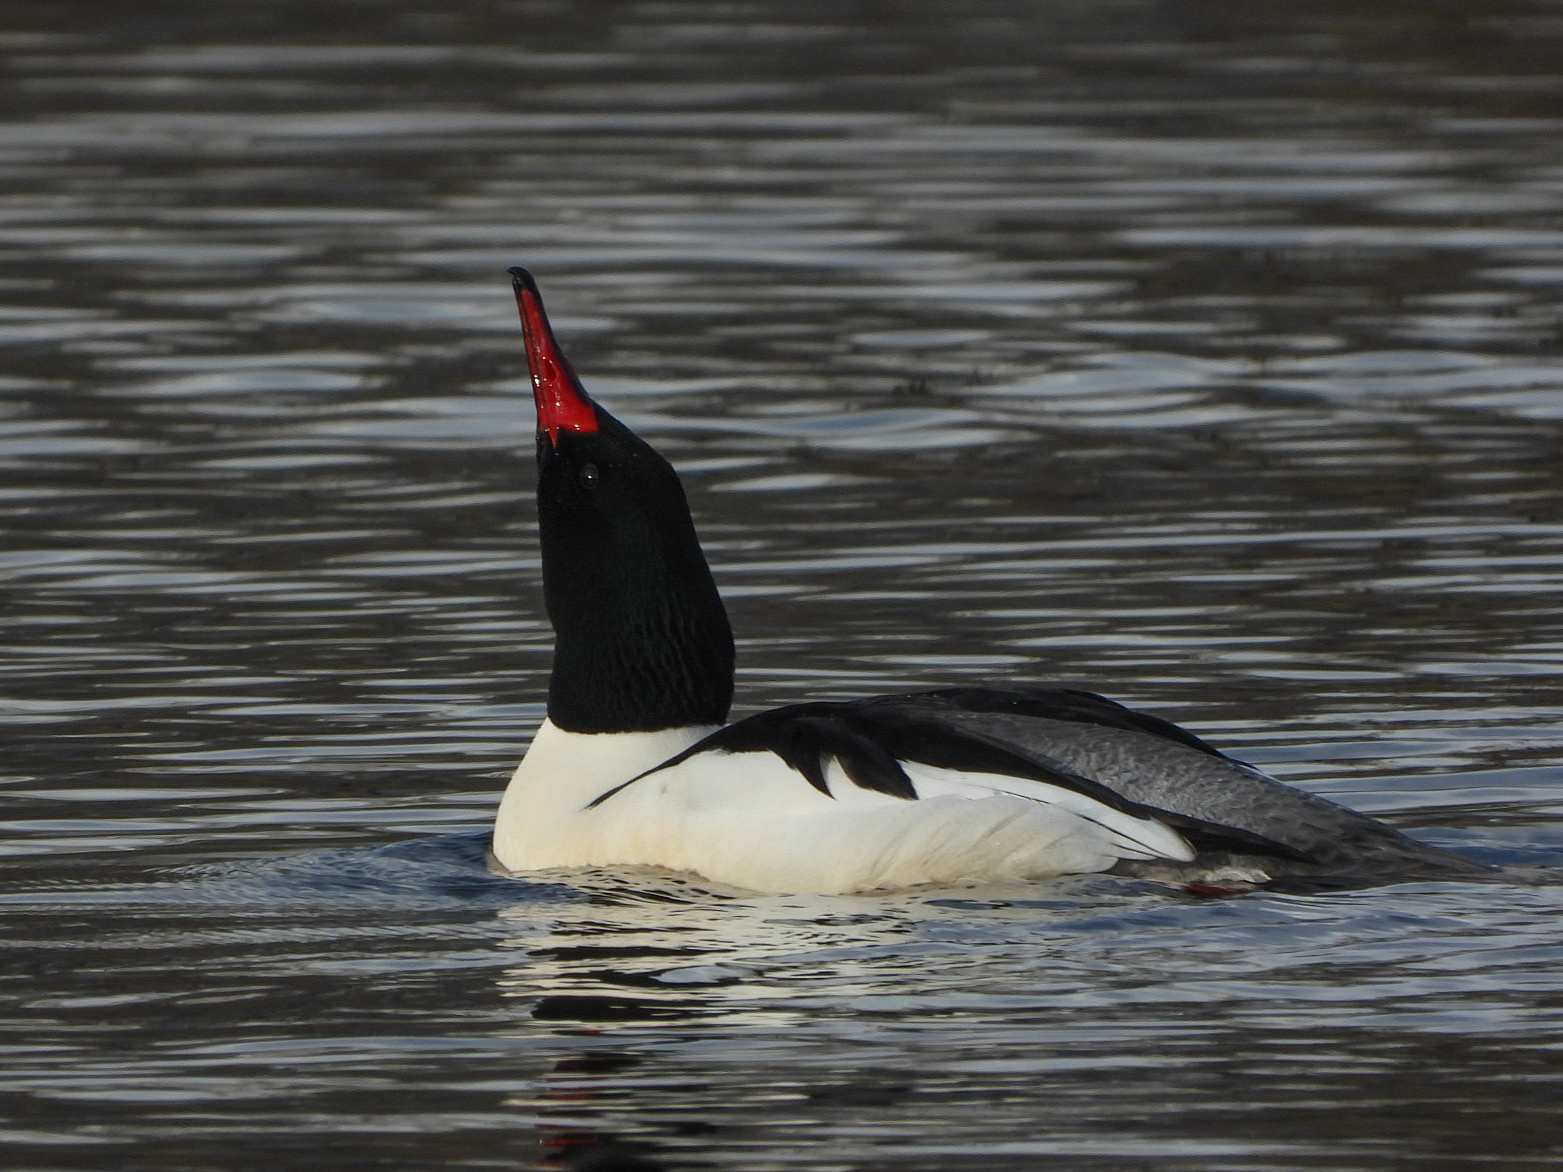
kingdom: Animalia
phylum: Chordata
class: Aves
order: Anseriformes
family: Anatidae
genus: Mergus
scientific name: Mergus merganser
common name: Common merganser
